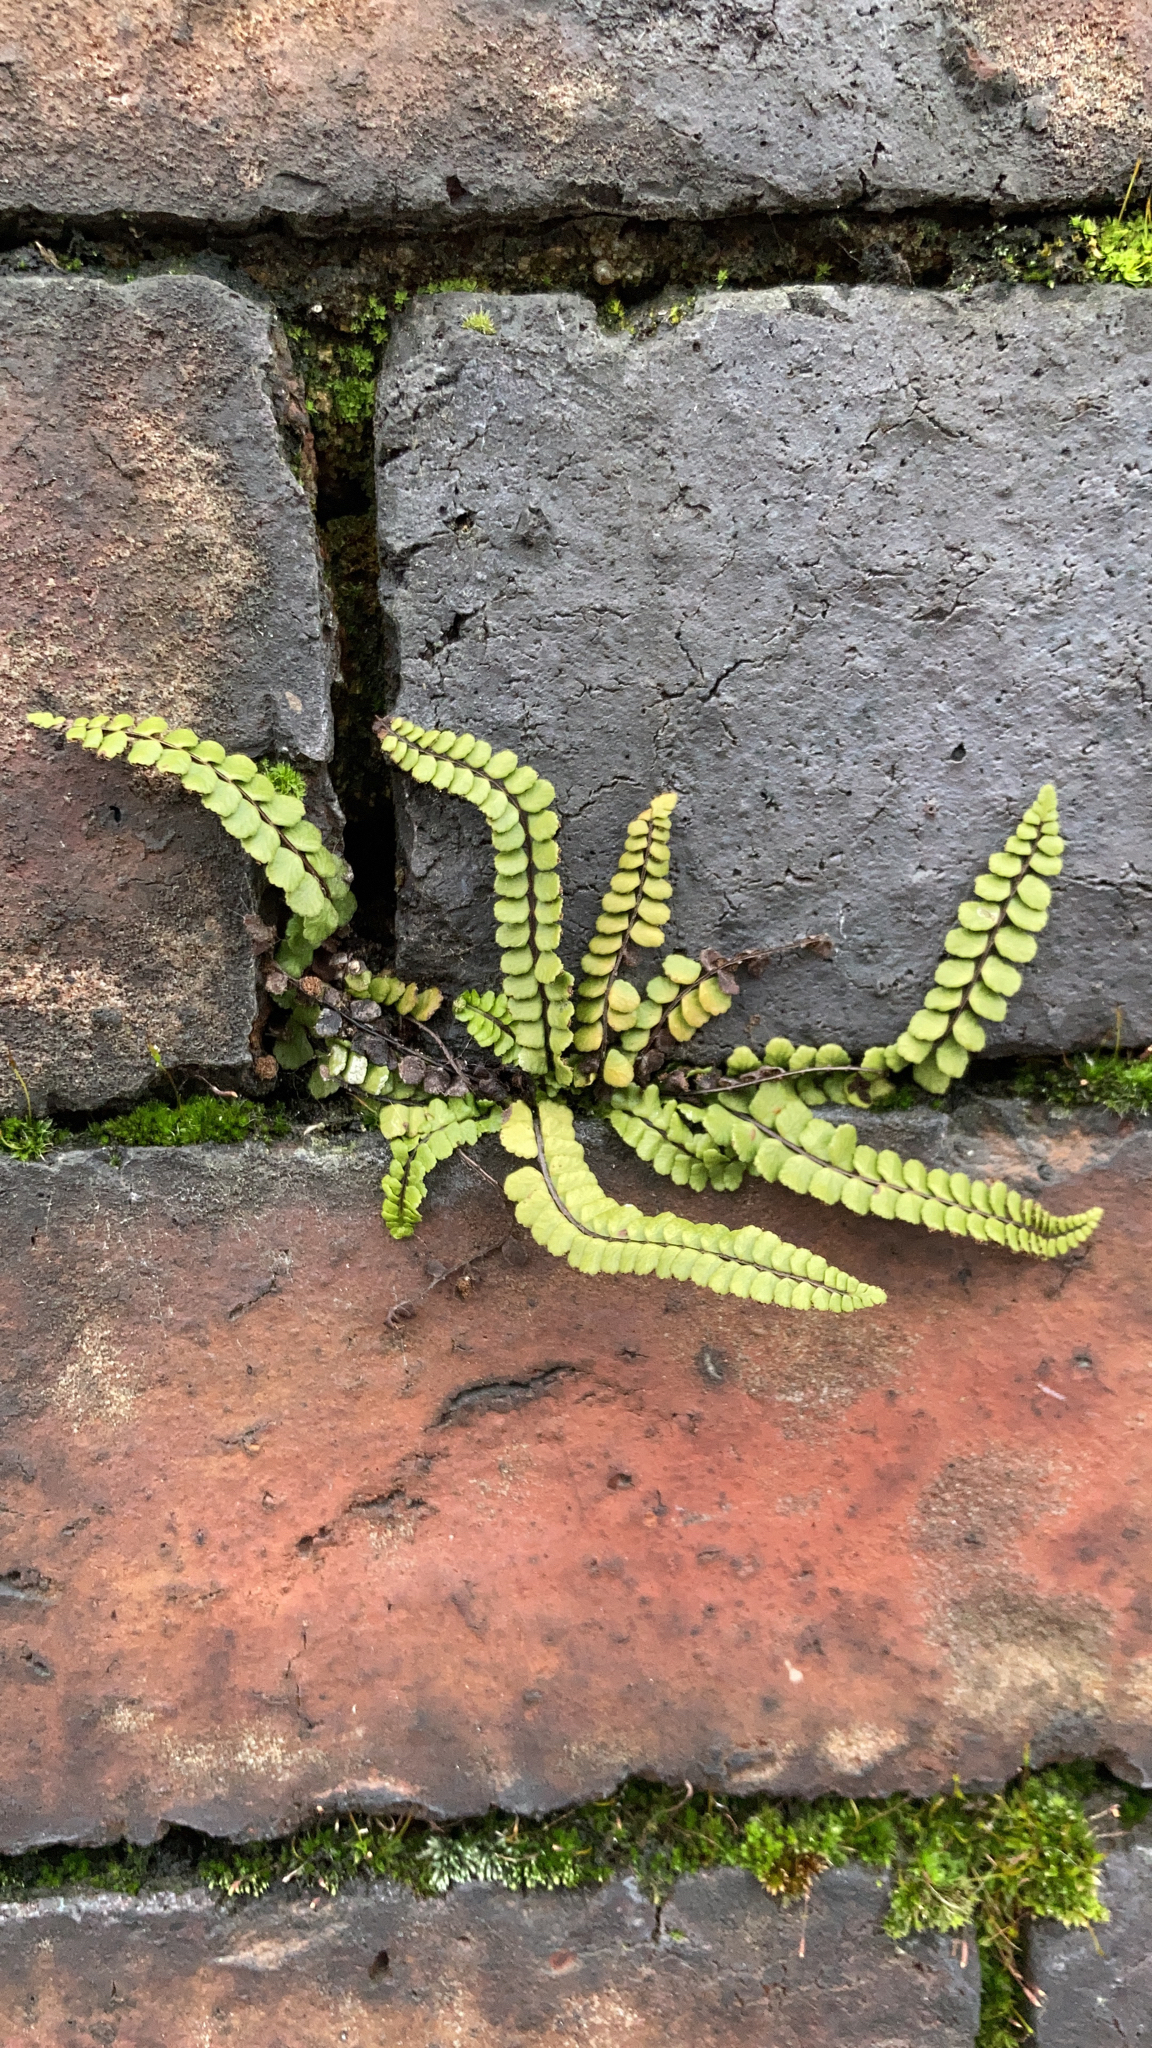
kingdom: Plantae
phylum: Tracheophyta
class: Polypodiopsida
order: Polypodiales
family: Aspleniaceae
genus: Asplenium
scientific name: Asplenium trichomanes
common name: Maidenhair spleenwort
